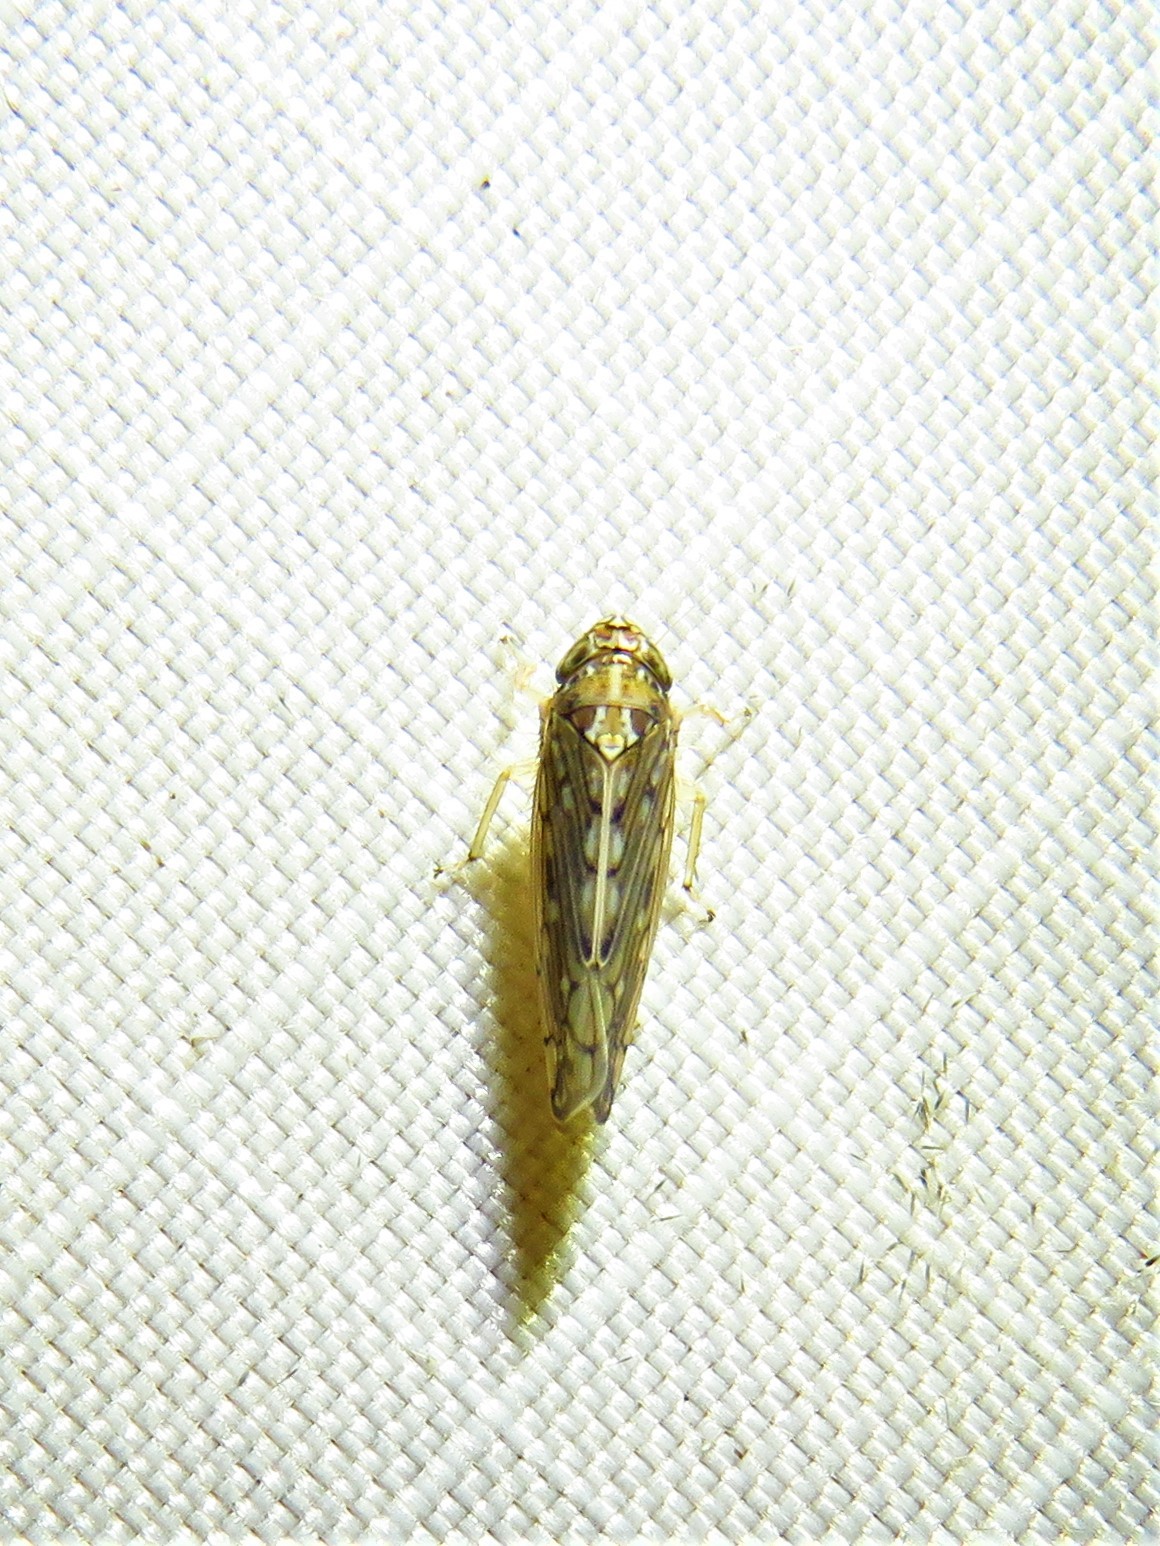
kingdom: Animalia
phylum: Arthropoda
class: Insecta
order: Hemiptera
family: Cicadellidae
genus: Osbornellus
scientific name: Osbornellus clarus
